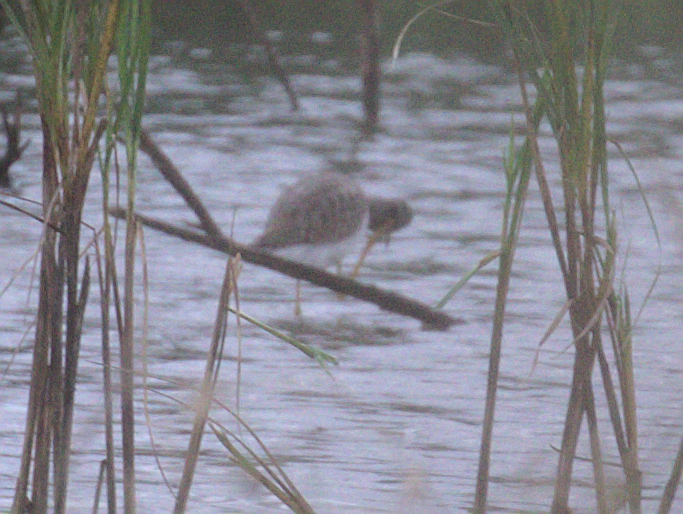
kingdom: Animalia
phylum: Chordata
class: Aves
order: Charadriiformes
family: Scolopacidae
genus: Tringa
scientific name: Tringa melanoleuca
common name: Greater yellowlegs
